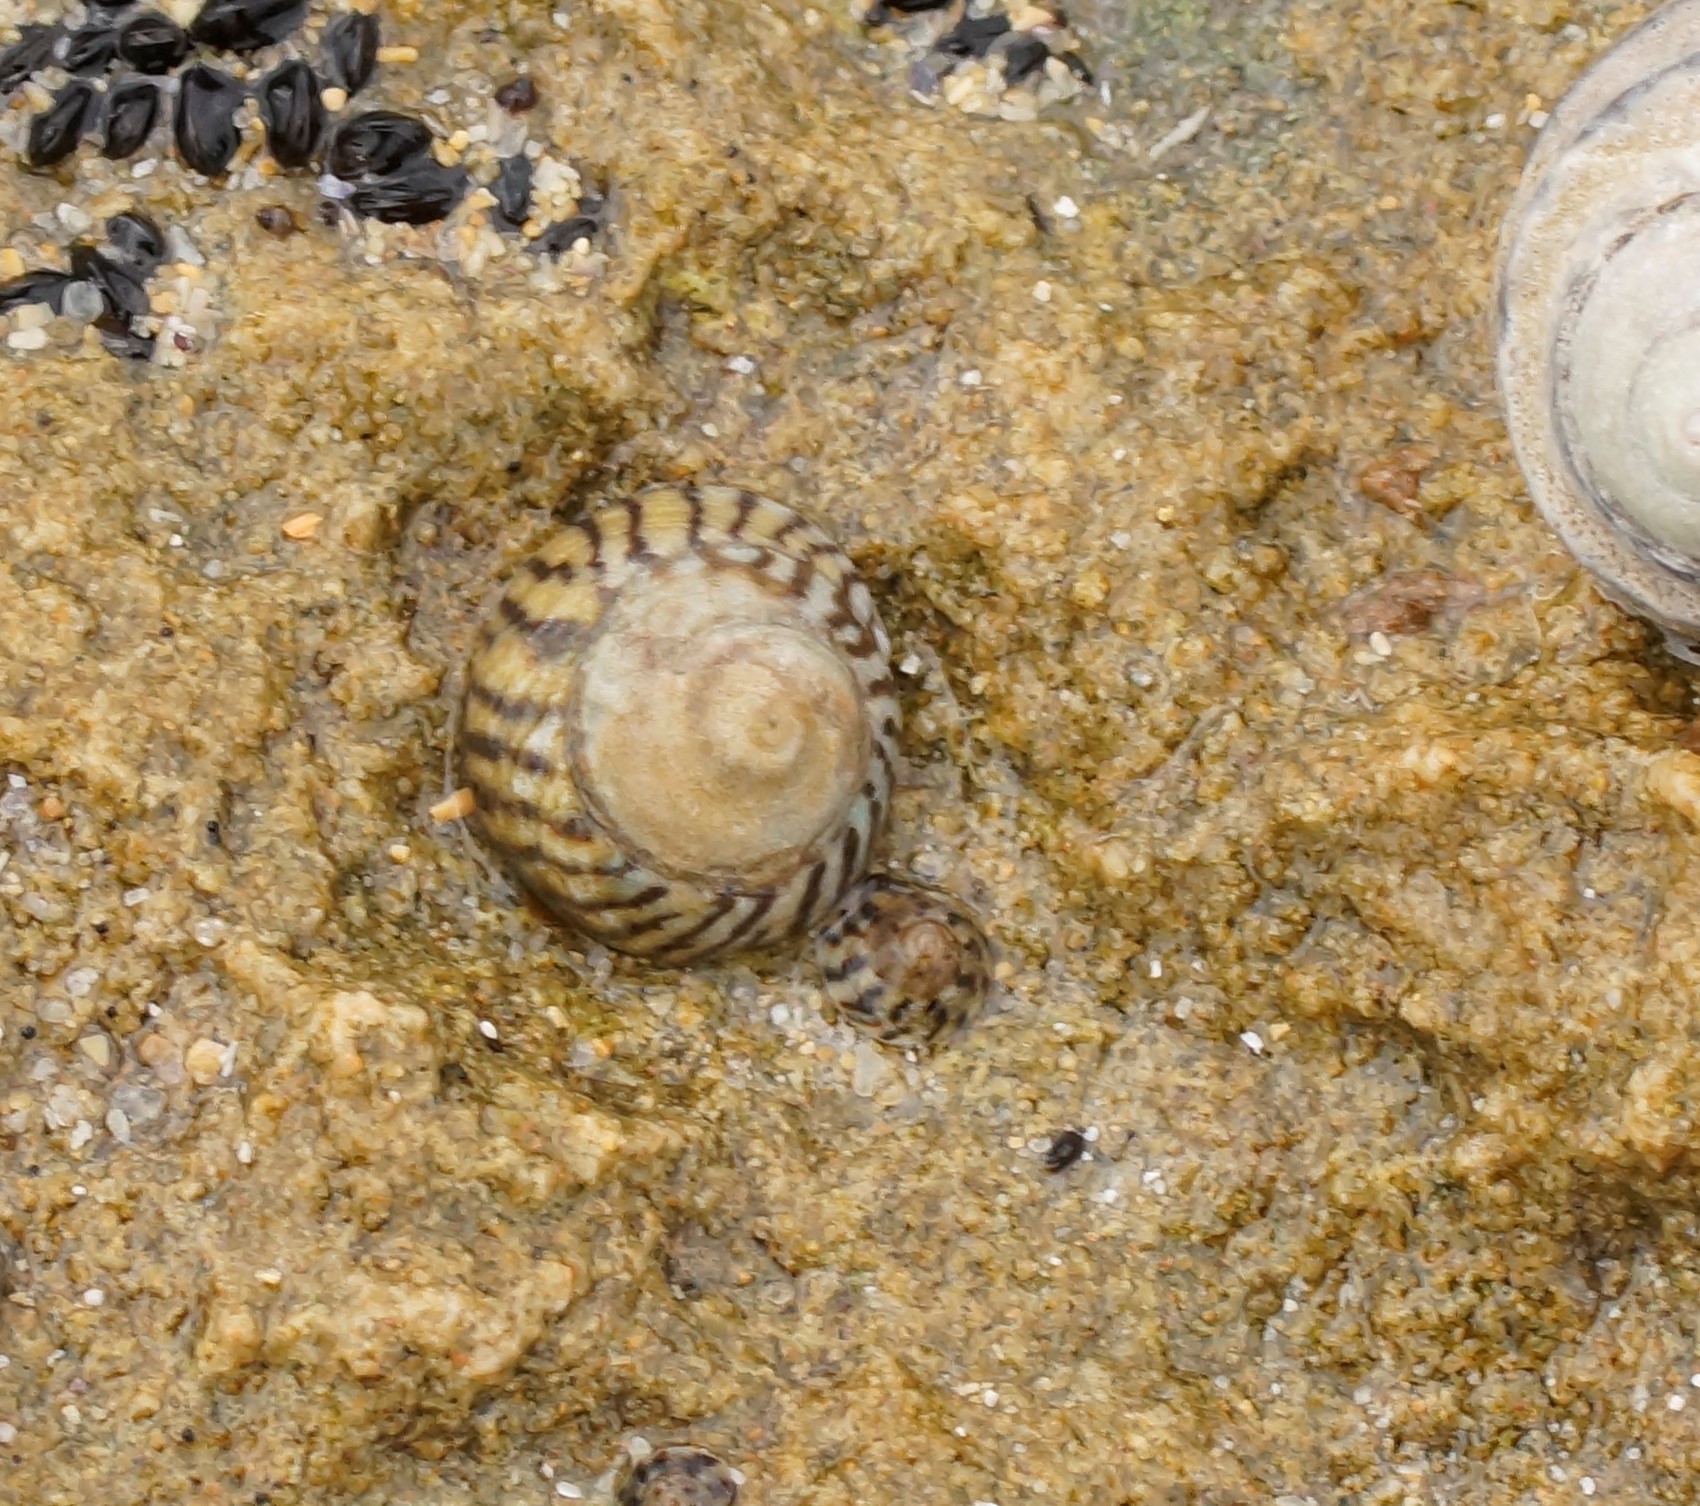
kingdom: Animalia
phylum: Mollusca
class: Gastropoda
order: Littorinimorpha
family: Littorinidae
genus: Bembicium
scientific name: Bembicium nanum
